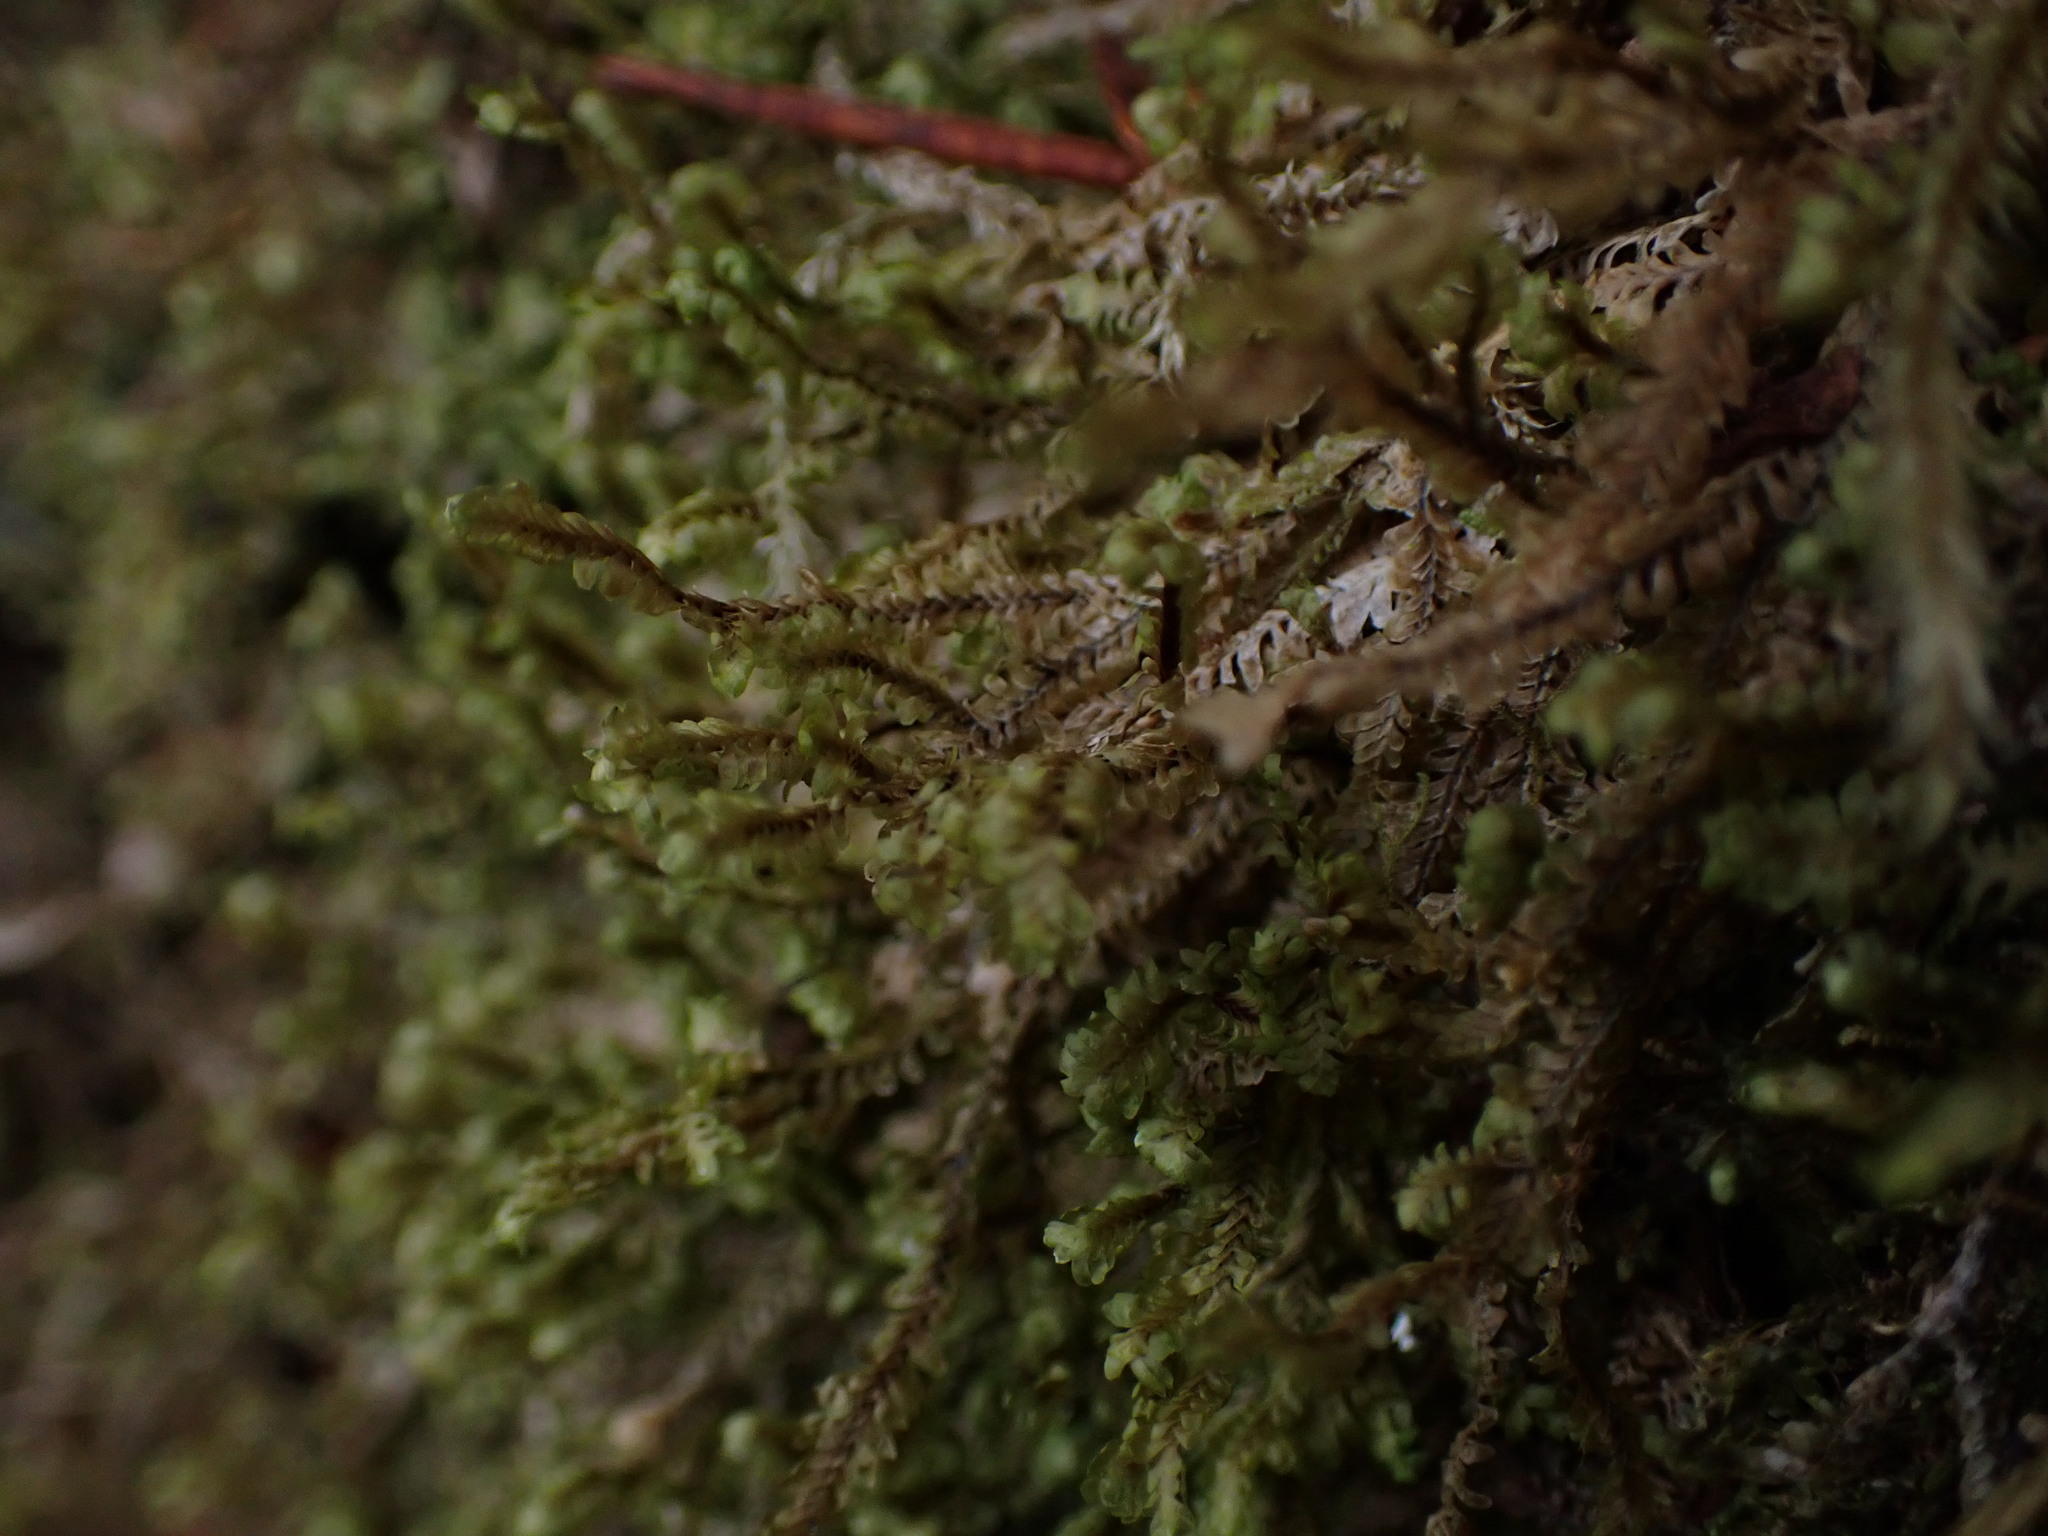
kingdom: Plantae
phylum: Marchantiophyta
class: Jungermanniopsida
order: Jungermanniales
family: Scapaniaceae
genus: Macrodiplophyllum
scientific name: Macrodiplophyllum rubrum
